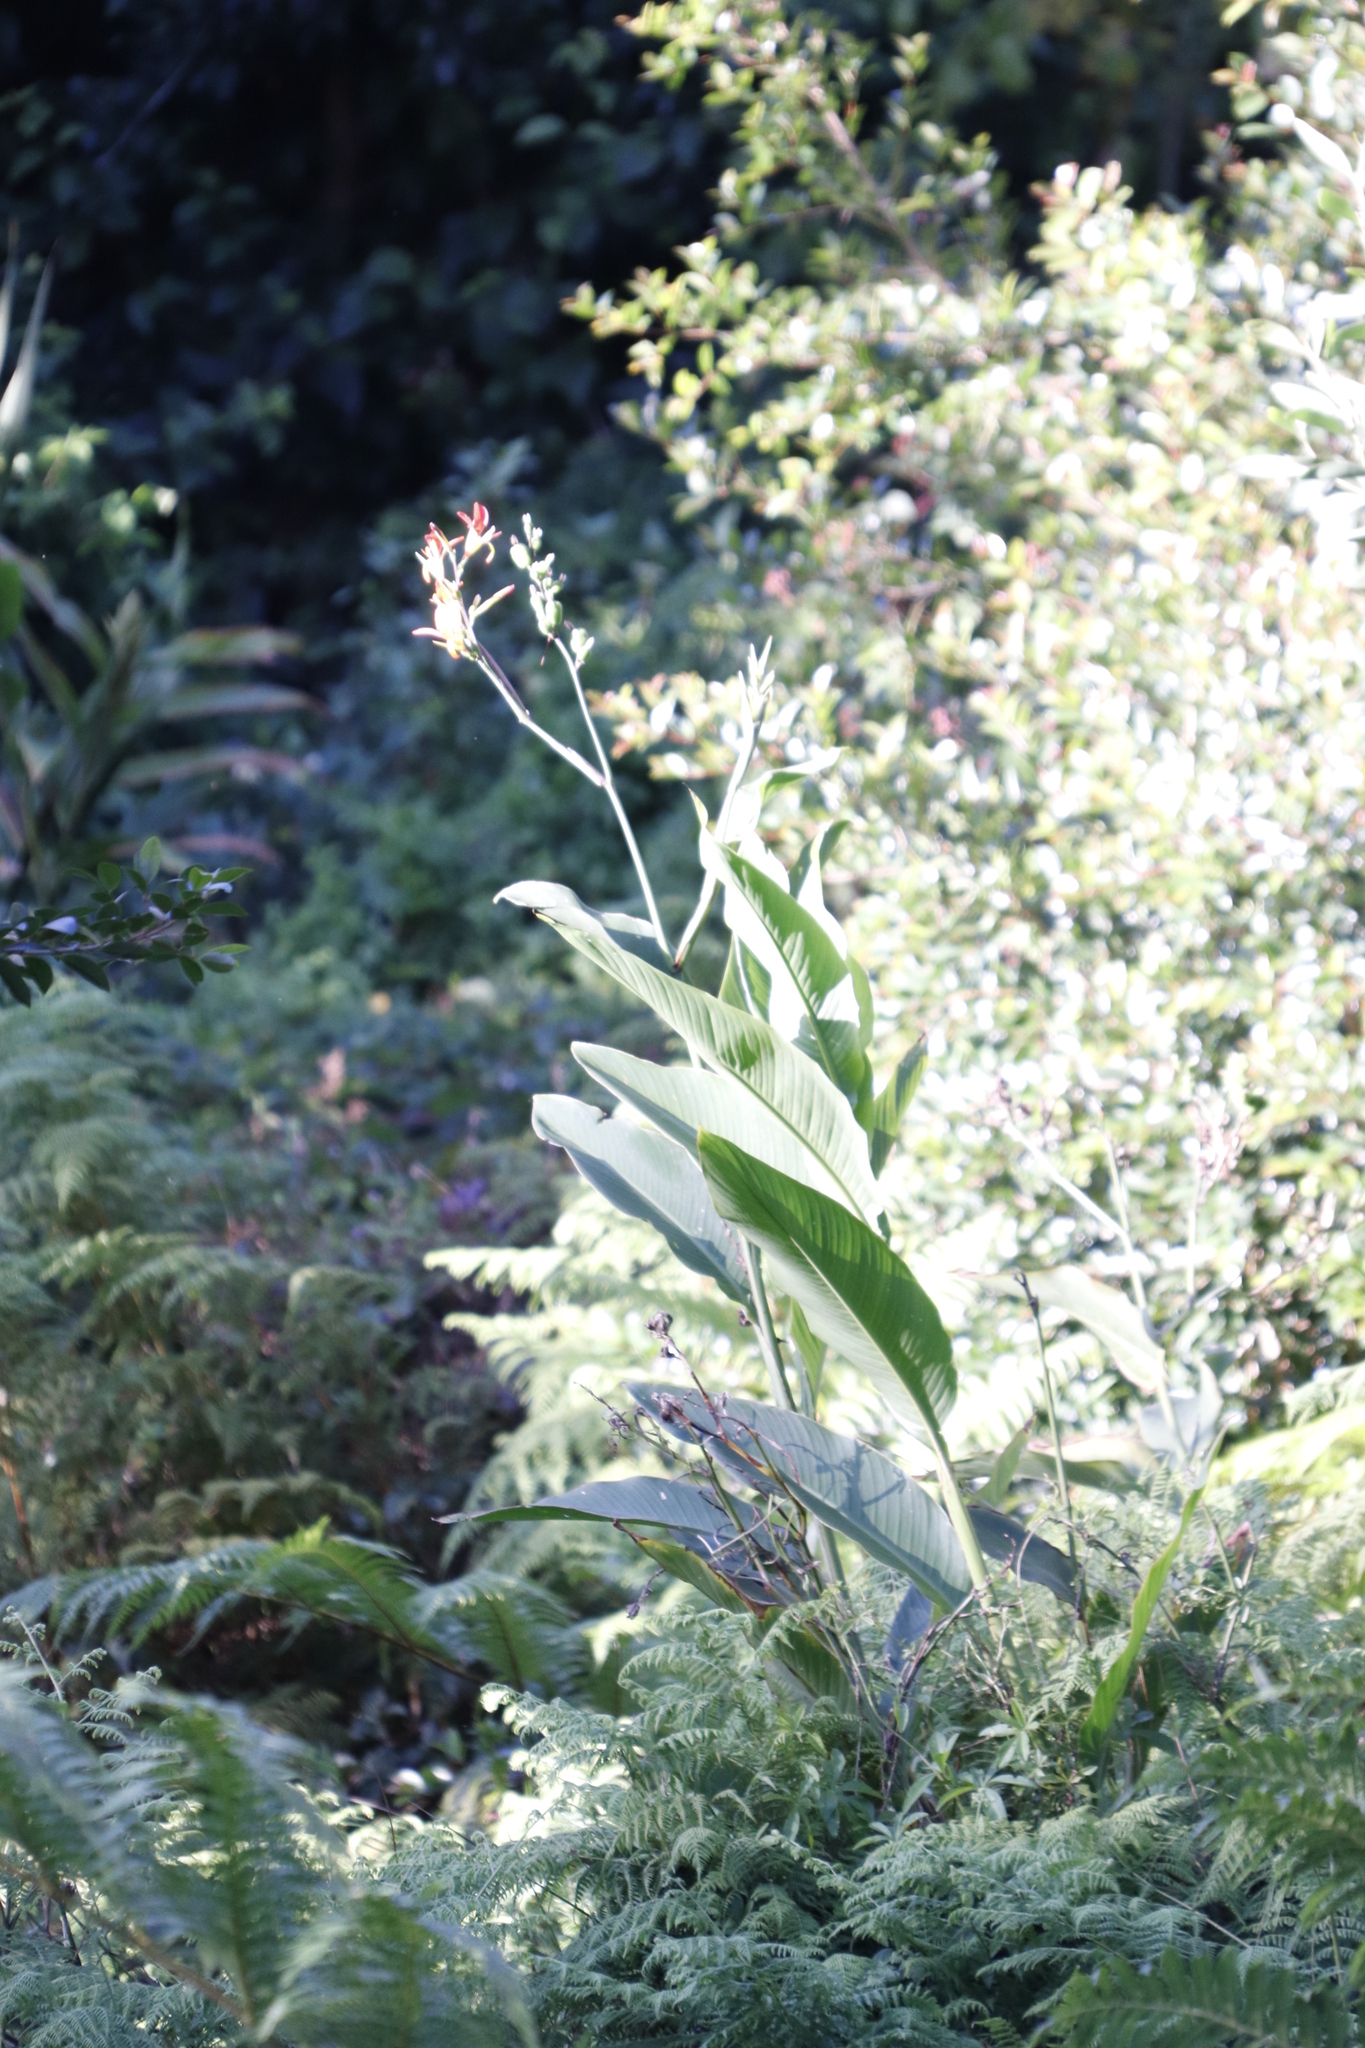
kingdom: Plantae
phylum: Tracheophyta
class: Liliopsida
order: Zingiberales
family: Cannaceae
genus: Canna
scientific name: Canna indica
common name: Indian shot
